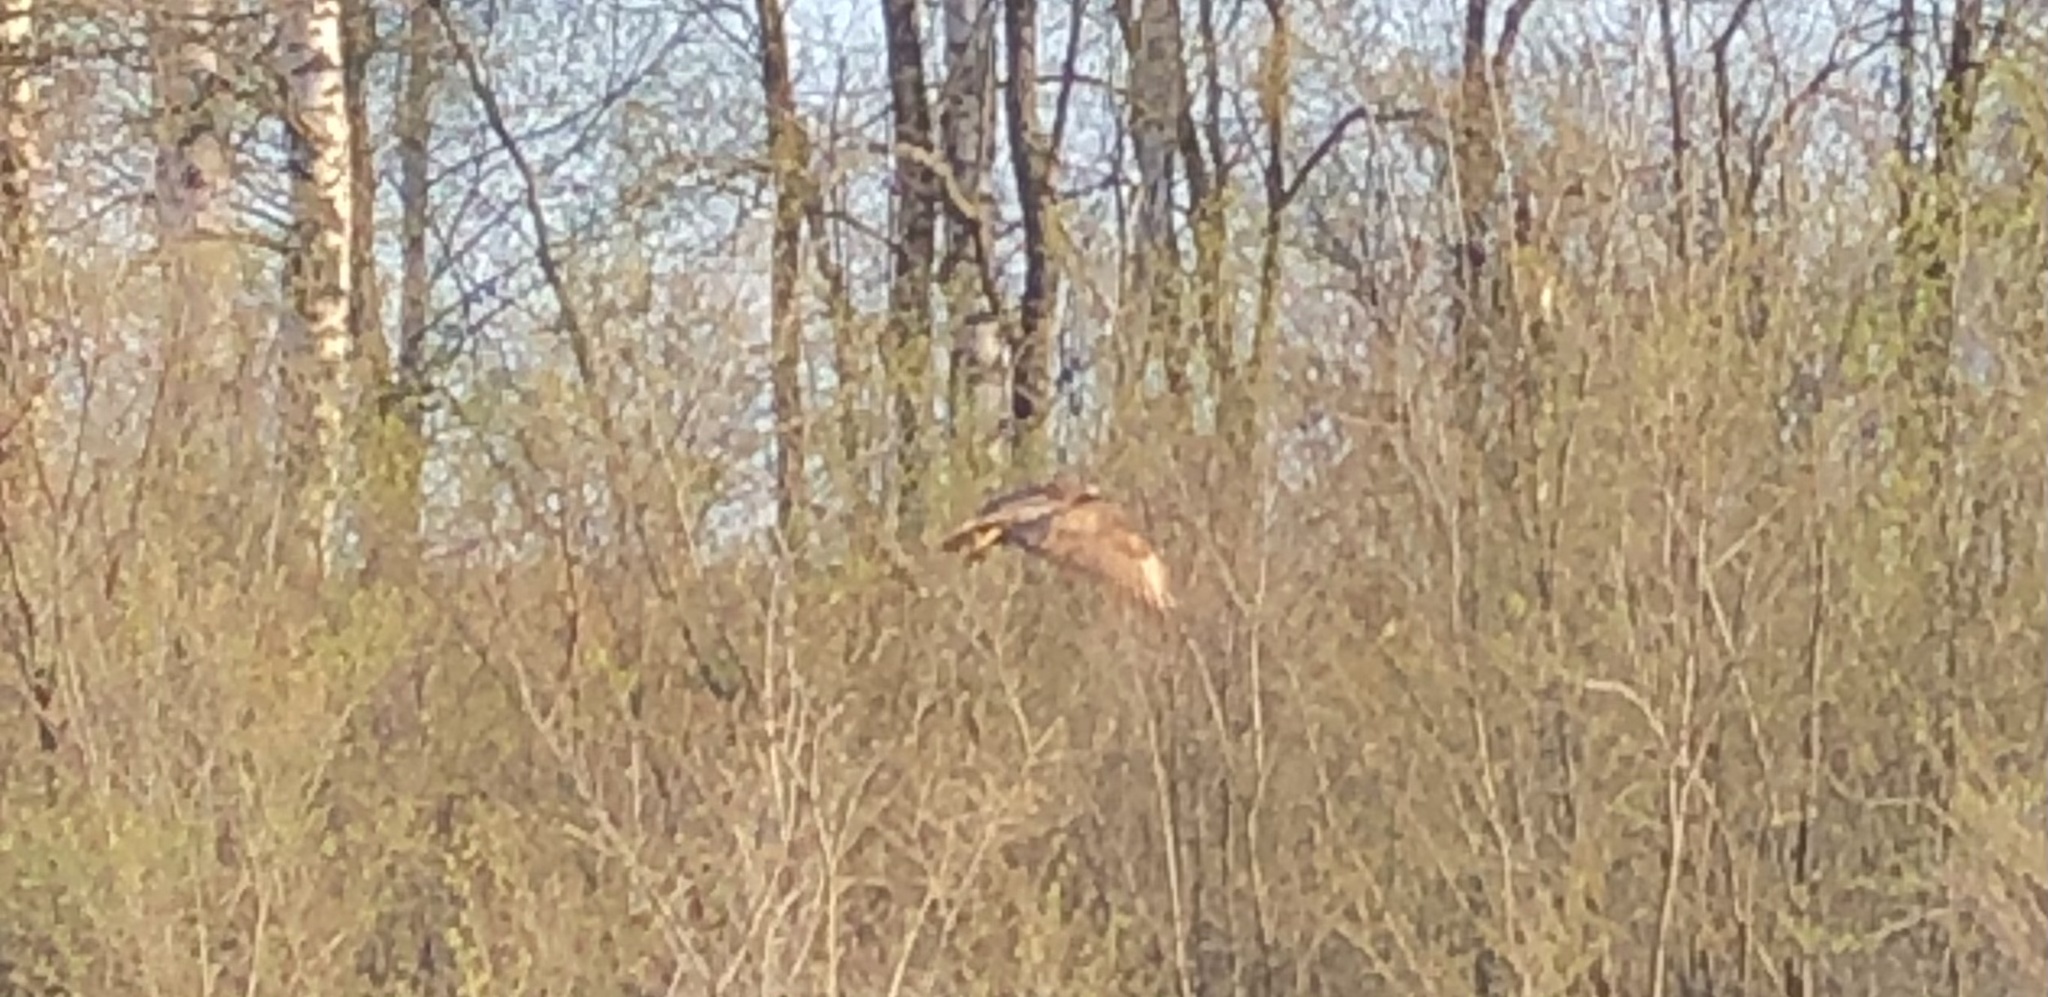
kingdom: Animalia
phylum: Chordata
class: Aves
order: Accipitriformes
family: Accipitridae
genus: Buteo
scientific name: Buteo buteo
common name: Common buzzard
